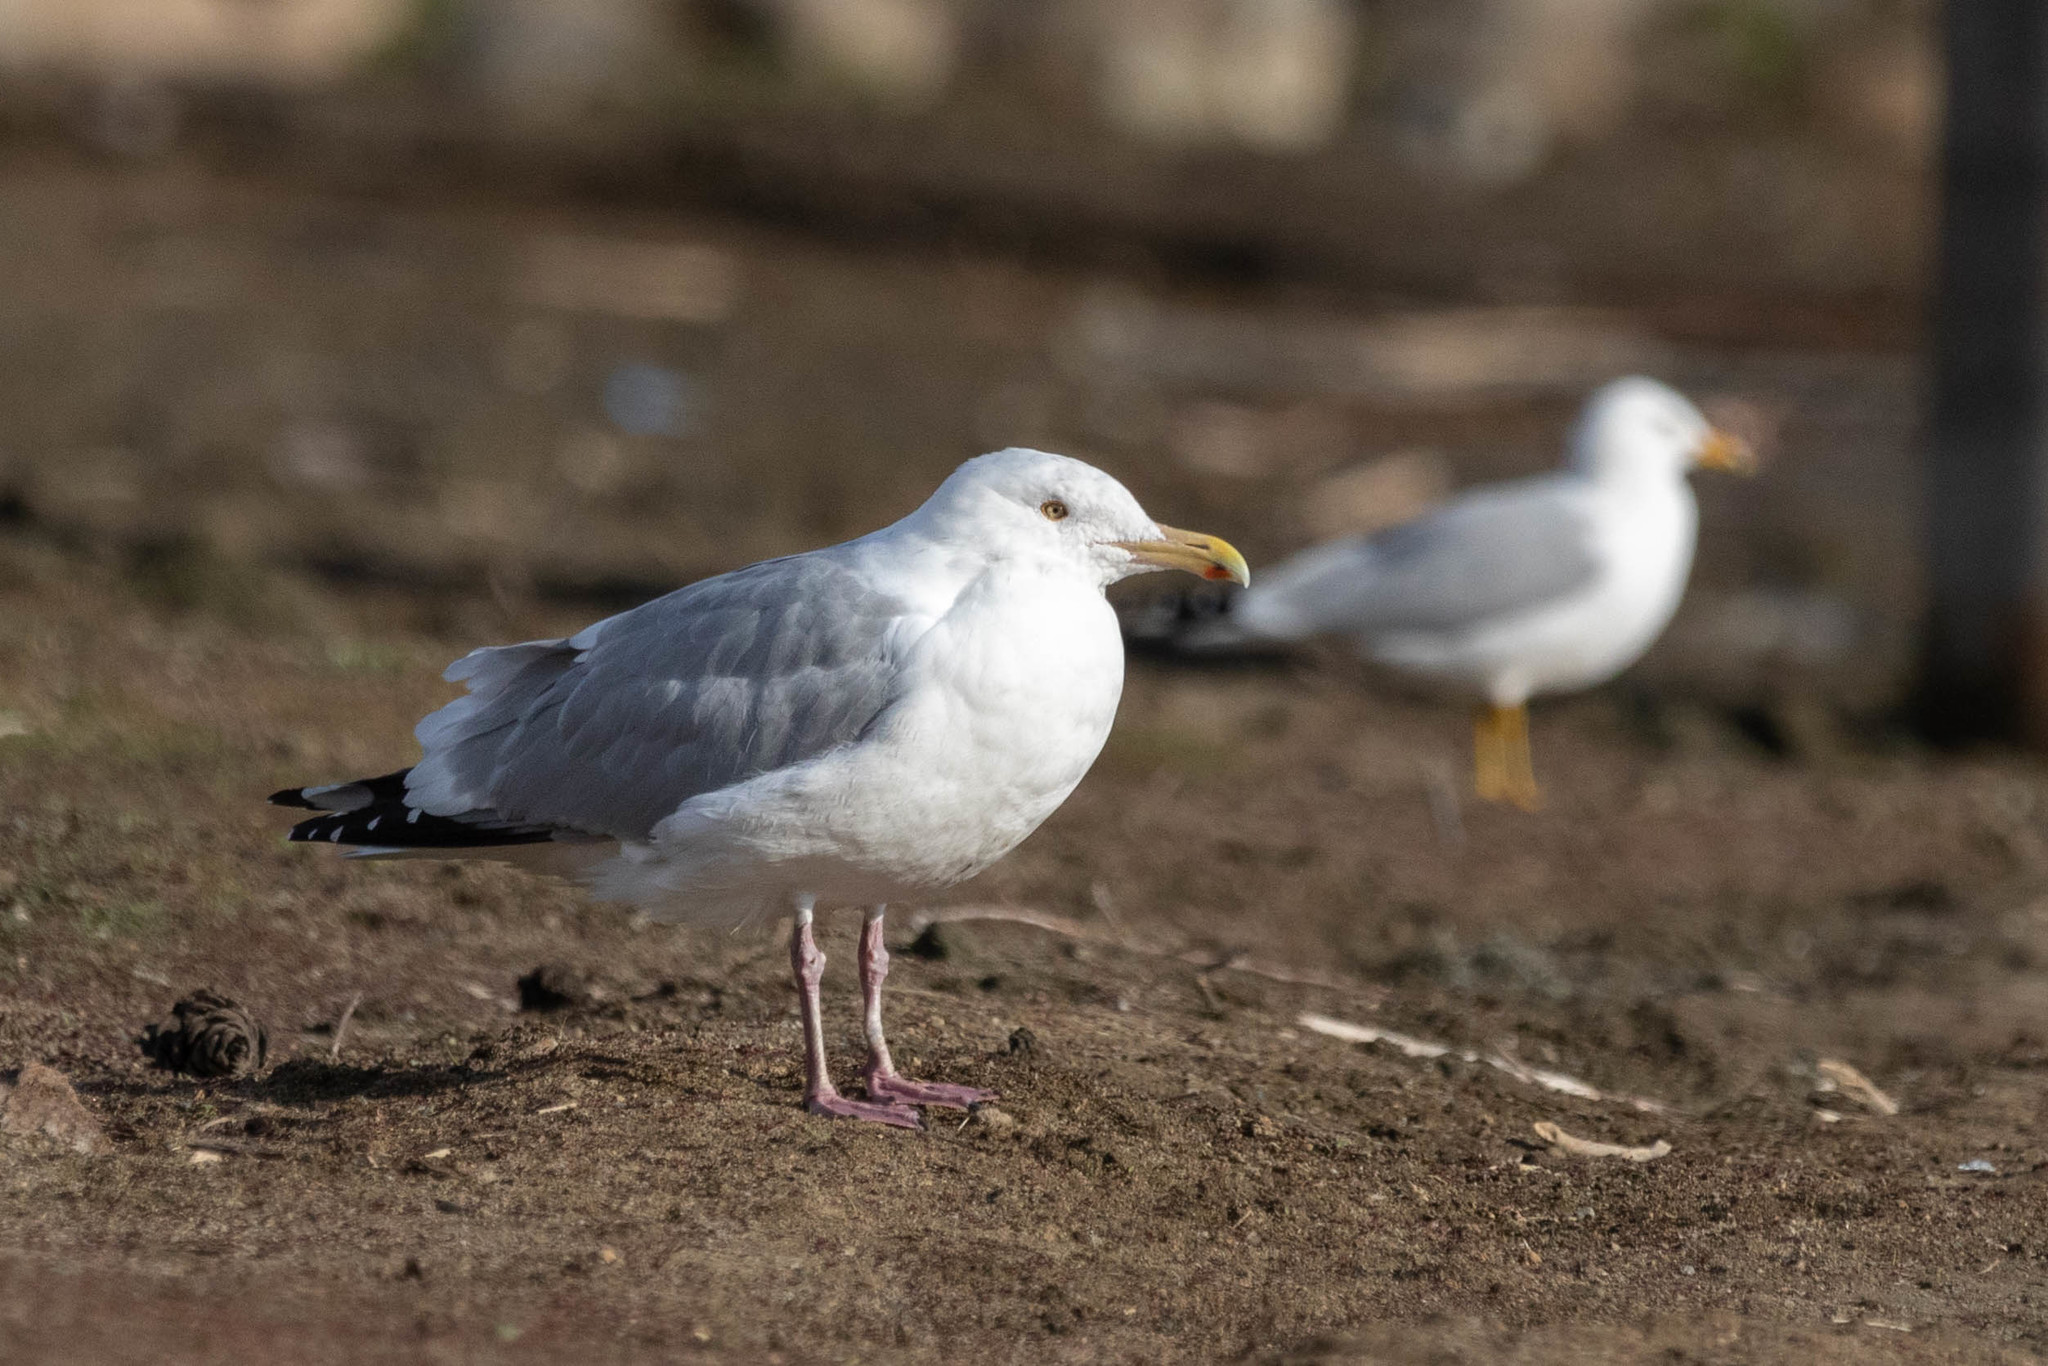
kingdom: Animalia
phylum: Chordata
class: Aves
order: Charadriiformes
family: Laridae
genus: Larus
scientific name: Larus argentatus
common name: Herring gull
